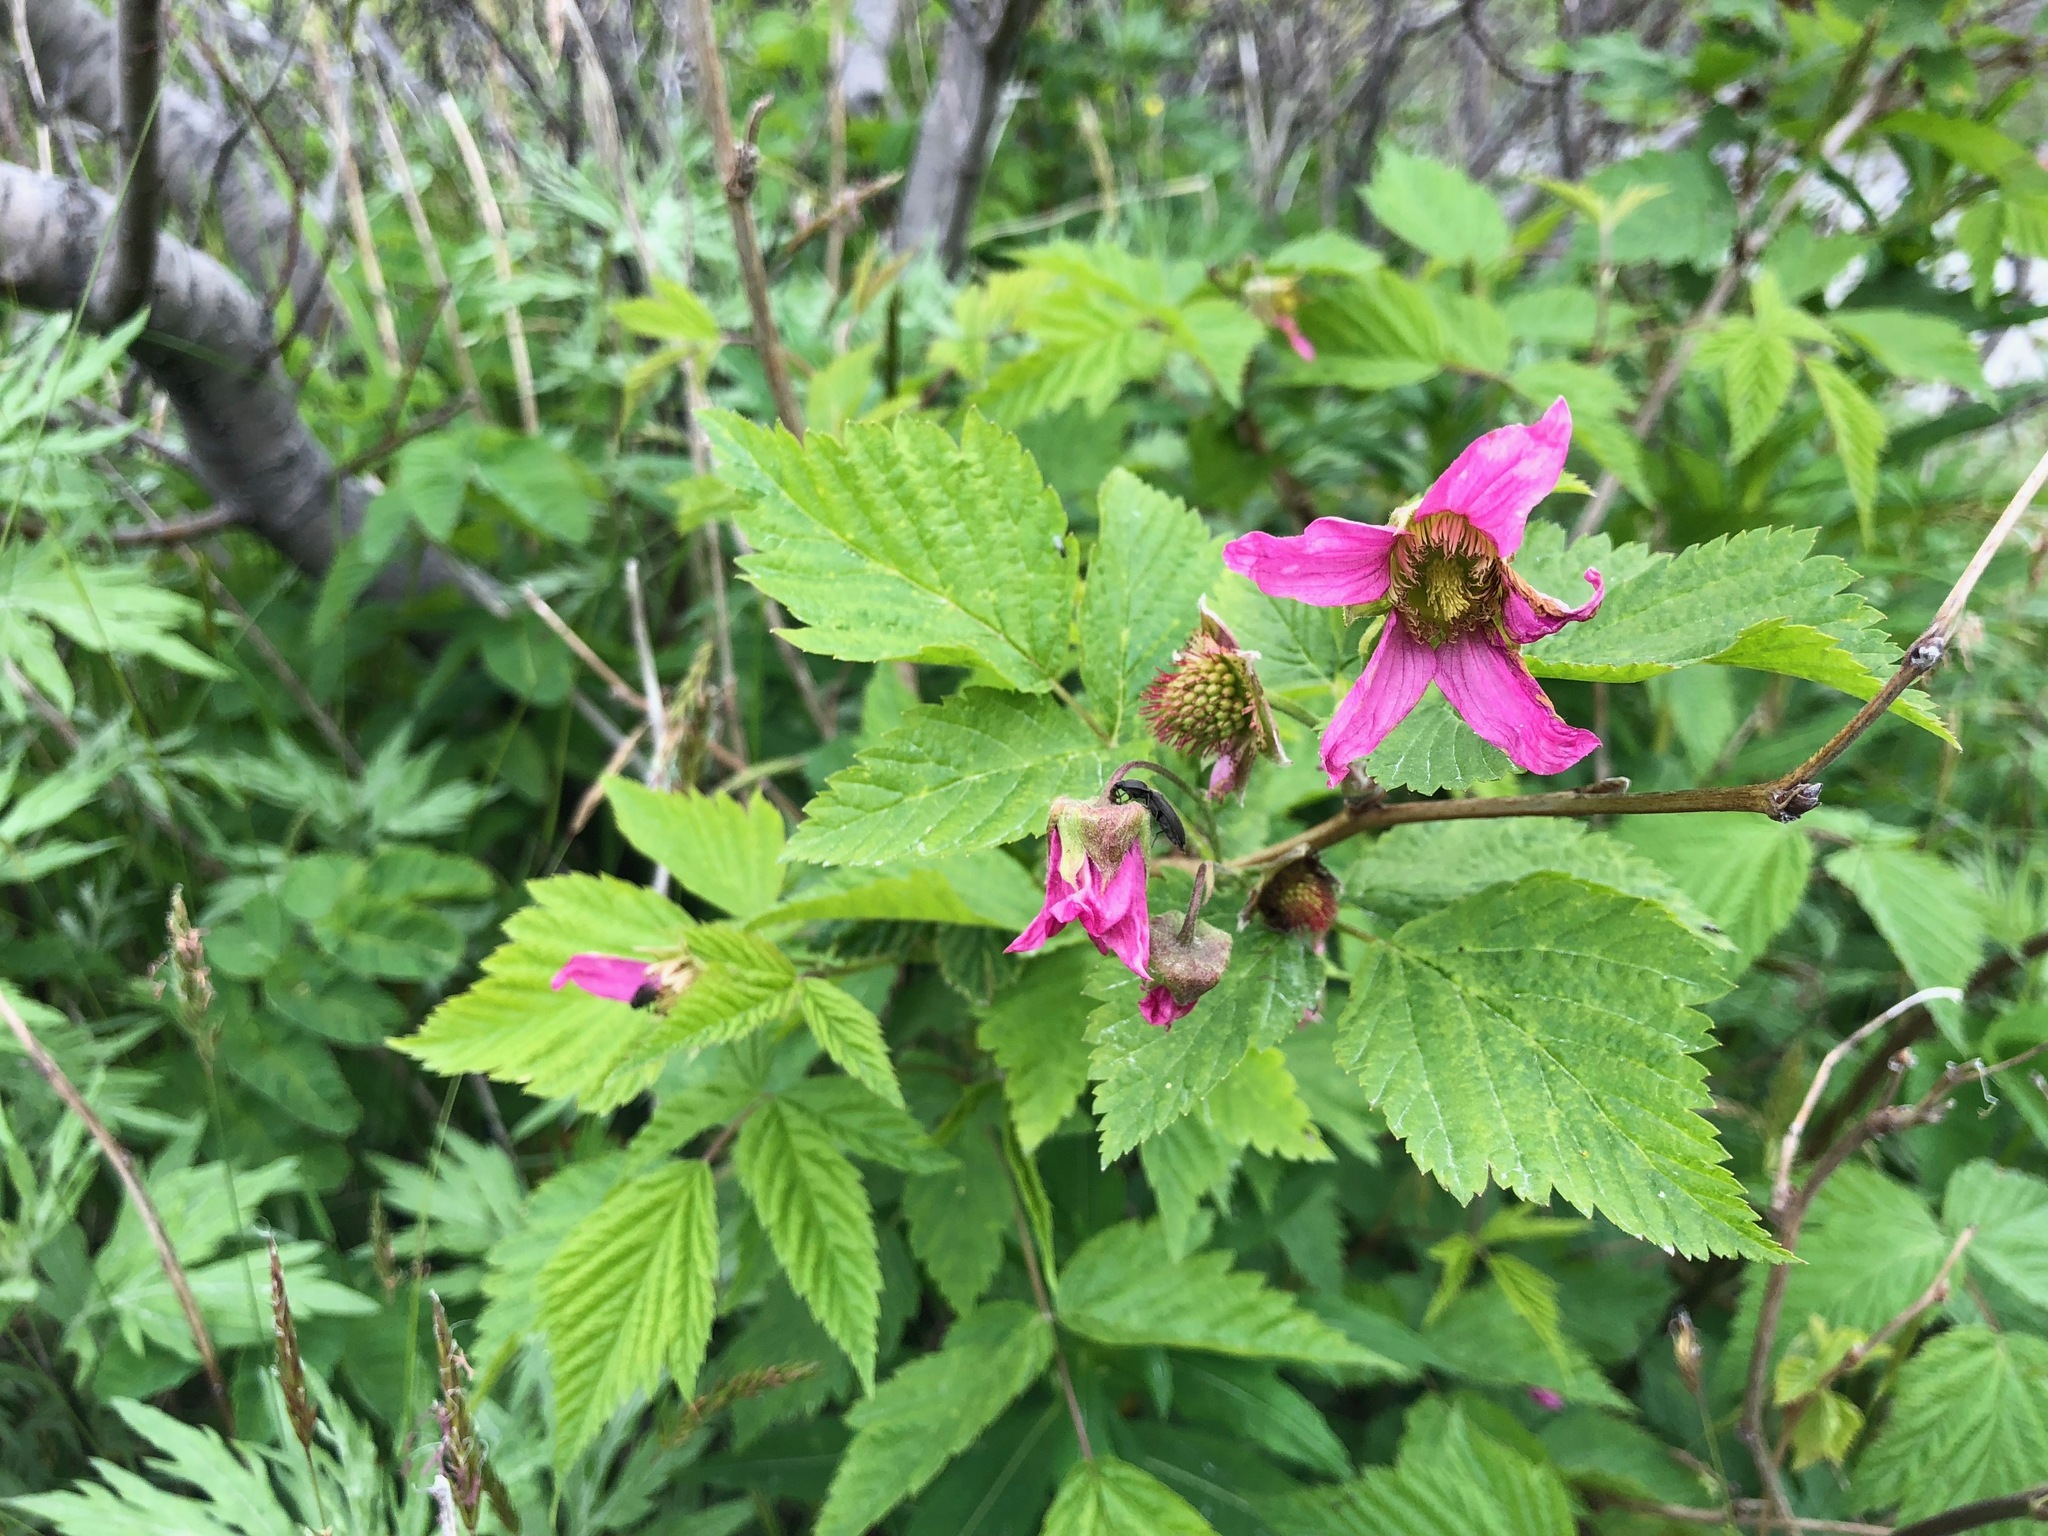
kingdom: Plantae
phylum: Tracheophyta
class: Magnoliopsida
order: Rosales
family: Rosaceae
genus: Rubus
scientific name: Rubus spectabilis
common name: Salmonberry
